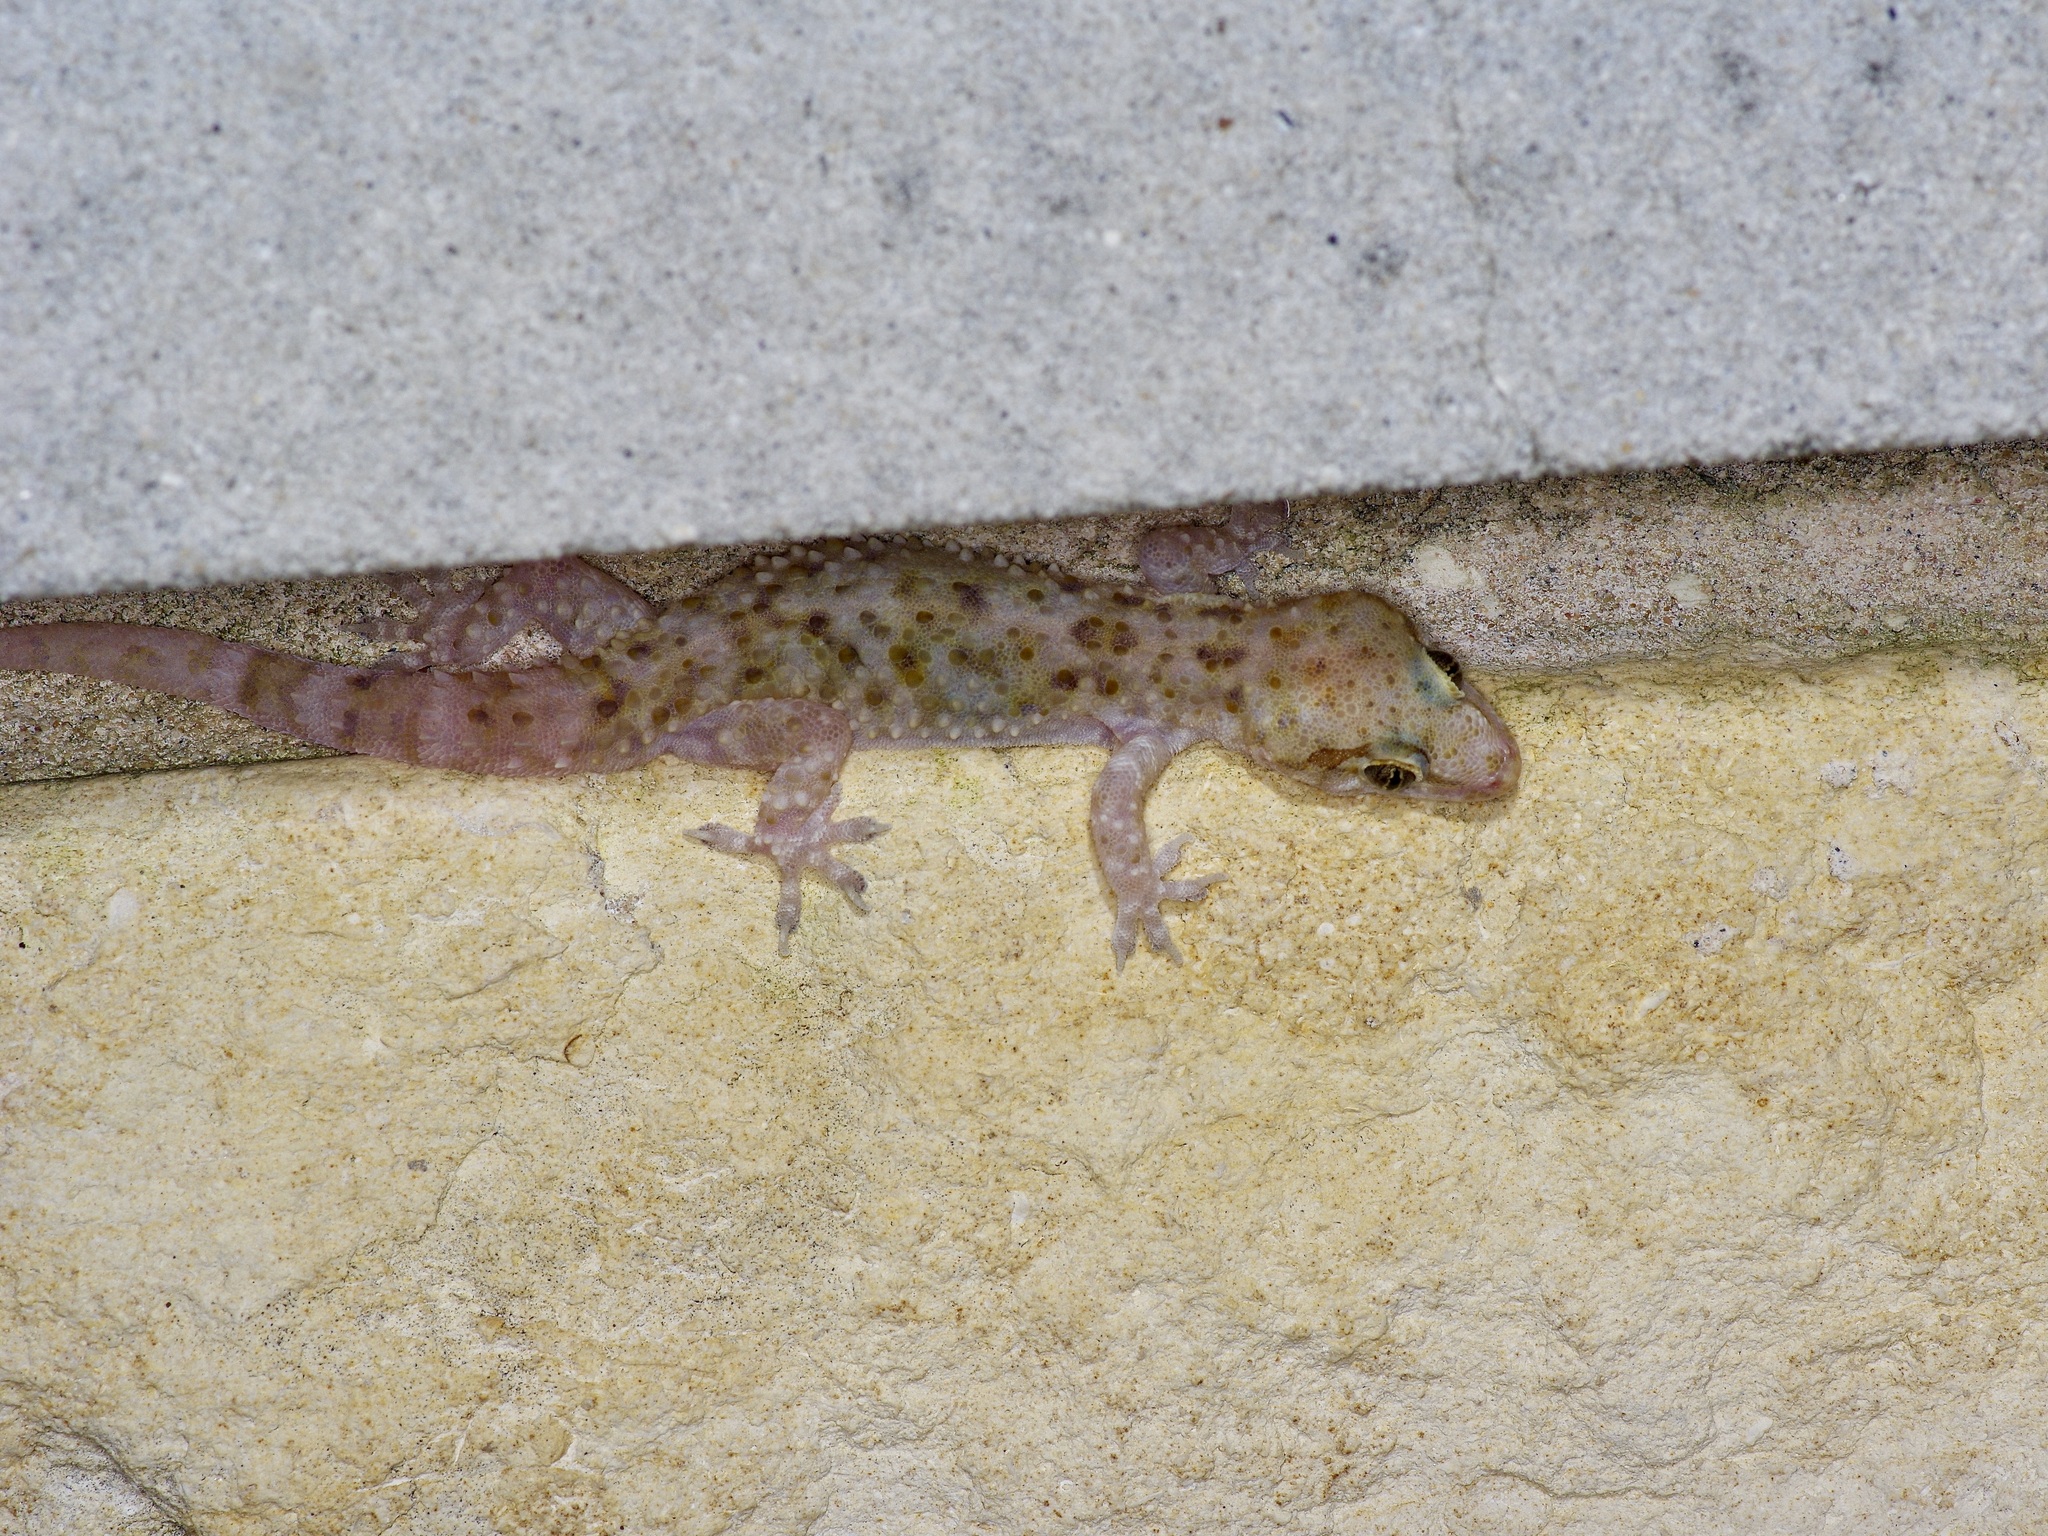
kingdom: Animalia
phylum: Chordata
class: Squamata
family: Gekkonidae
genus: Hemidactylus
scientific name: Hemidactylus turcicus
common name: Turkish gecko
